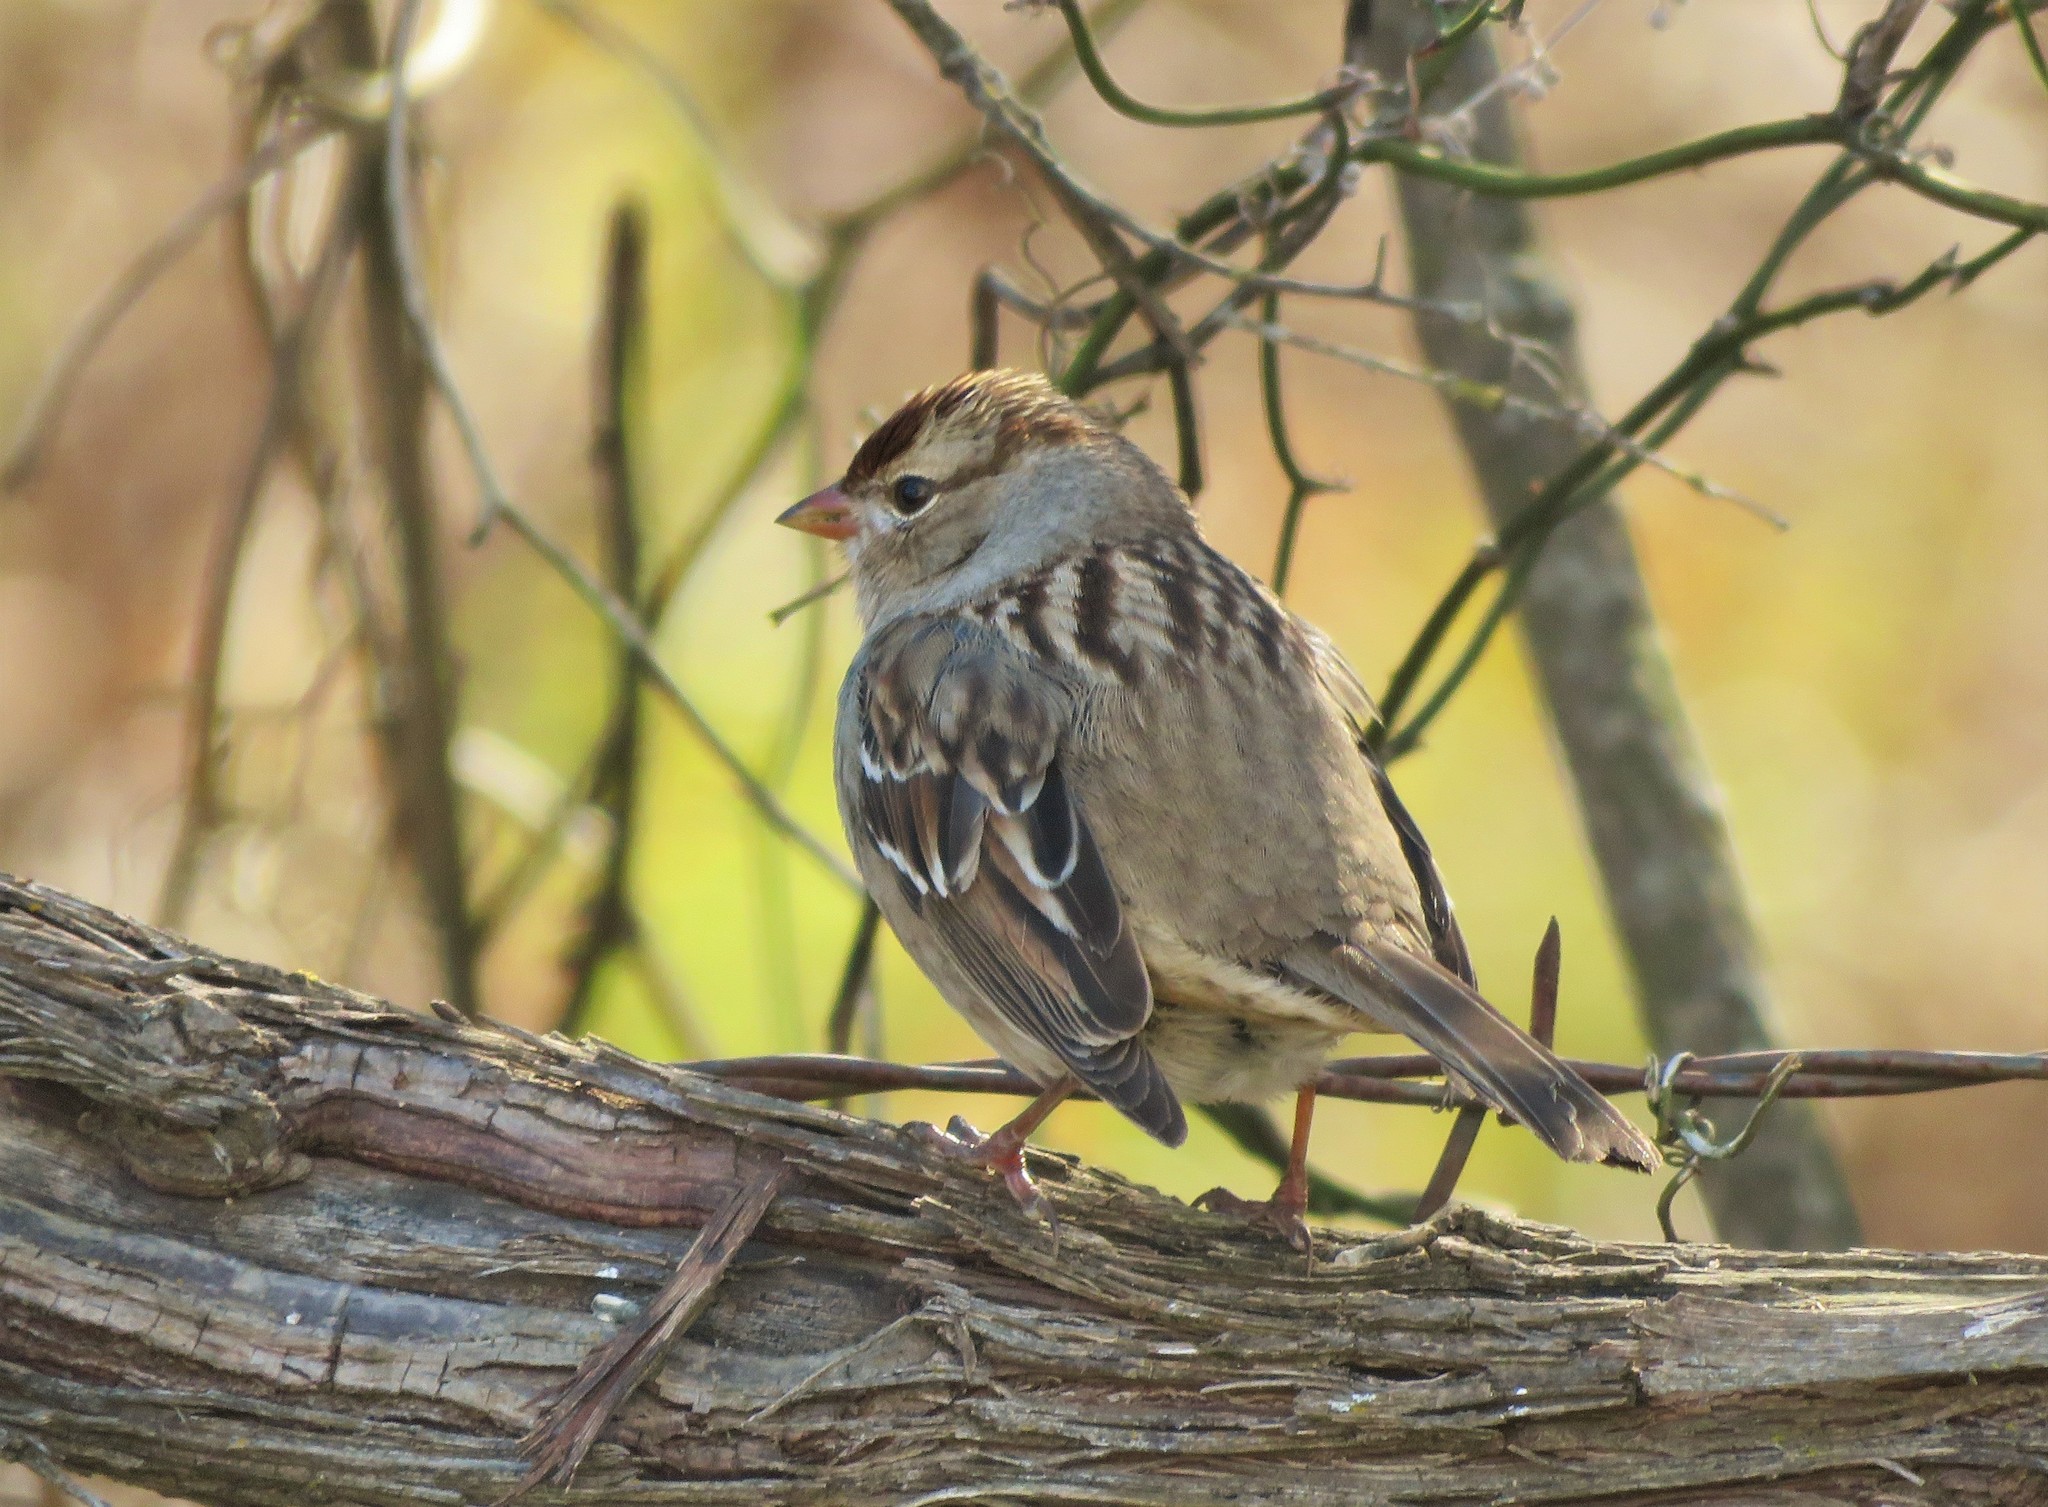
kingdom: Animalia
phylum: Chordata
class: Aves
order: Passeriformes
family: Passerellidae
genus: Zonotrichia
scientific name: Zonotrichia leucophrys
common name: White-crowned sparrow
